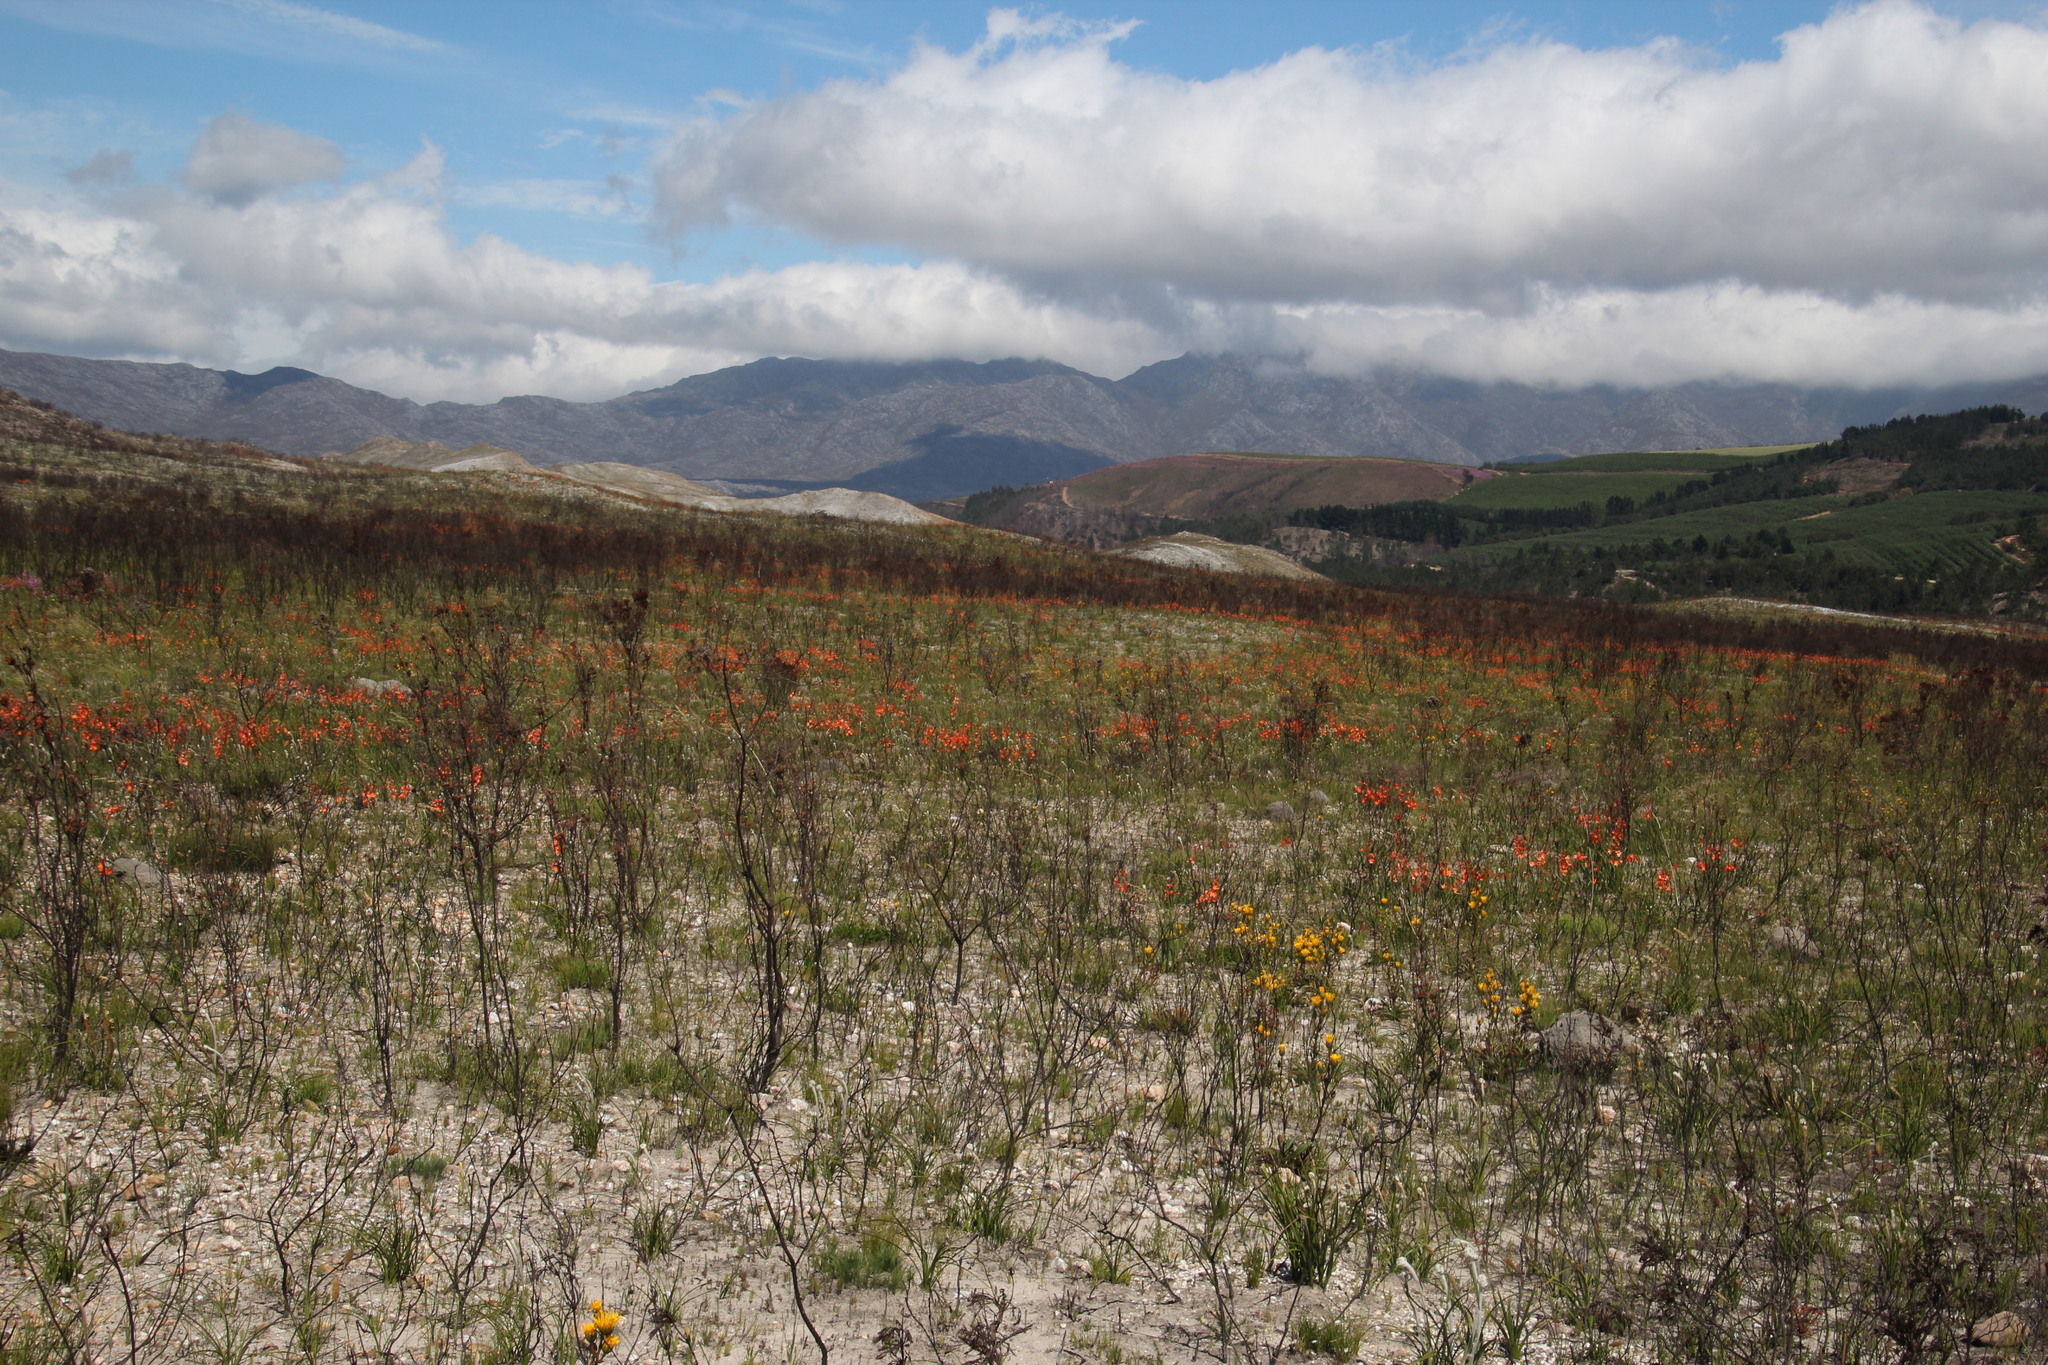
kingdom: Plantae
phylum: Tracheophyta
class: Liliopsida
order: Asparagales
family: Iridaceae
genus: Pillansia
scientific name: Pillansia templemannii
